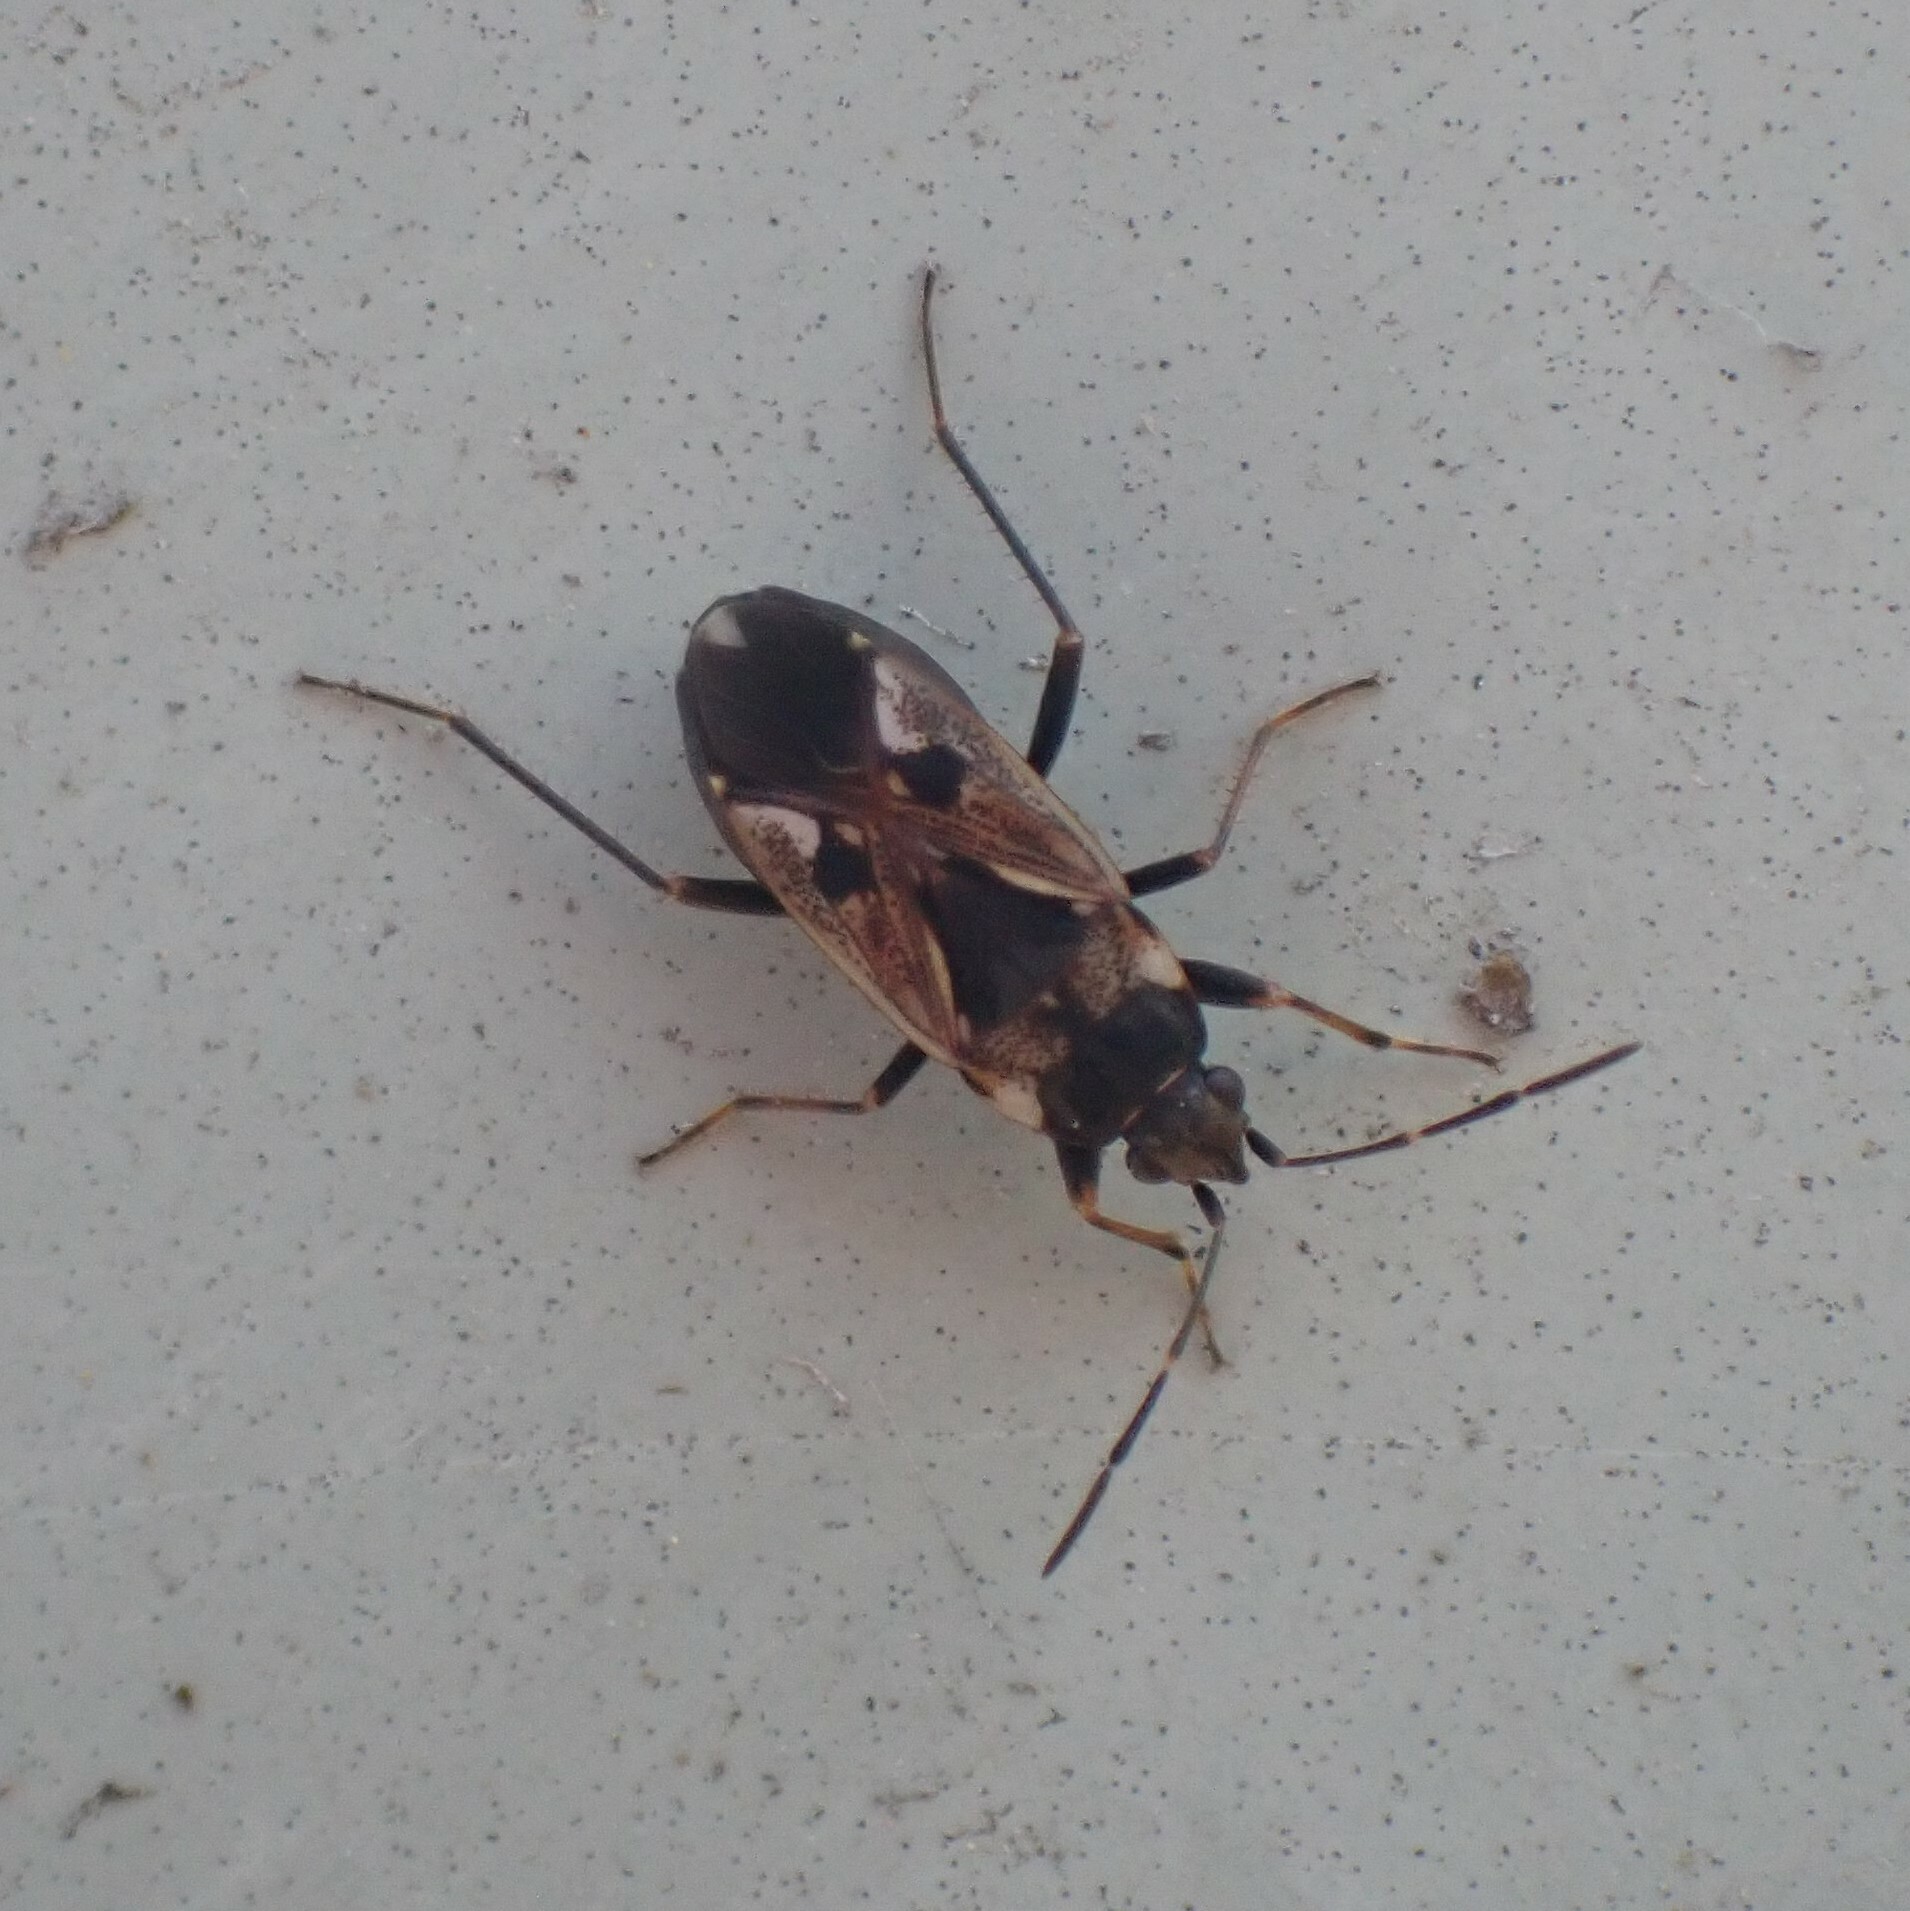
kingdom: Animalia
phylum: Arthropoda
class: Insecta
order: Hemiptera
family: Rhyparochromidae
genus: Rhyparochromus
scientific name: Rhyparochromus vulgaris
